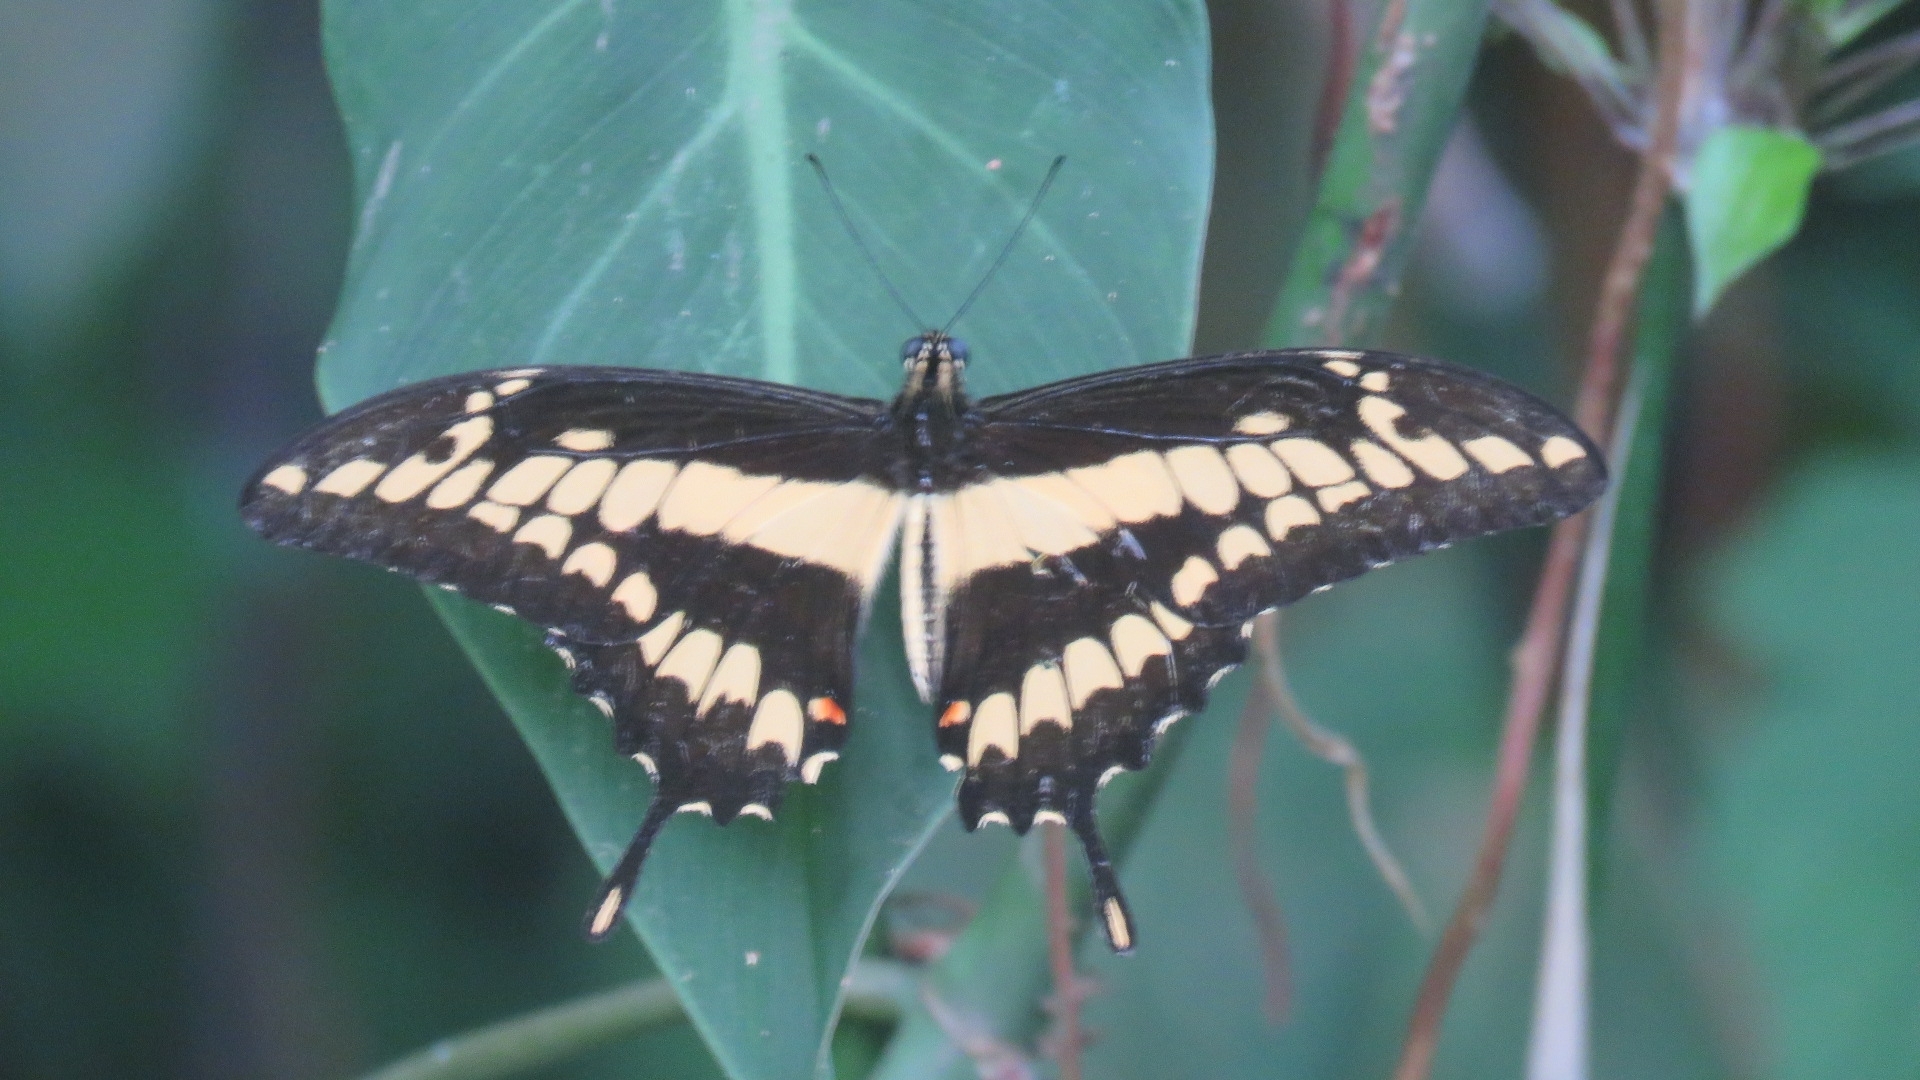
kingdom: Animalia
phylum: Arthropoda
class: Insecta
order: Lepidoptera
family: Papilionidae
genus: Papilio
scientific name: Papilio thoas
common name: King swallowtail
